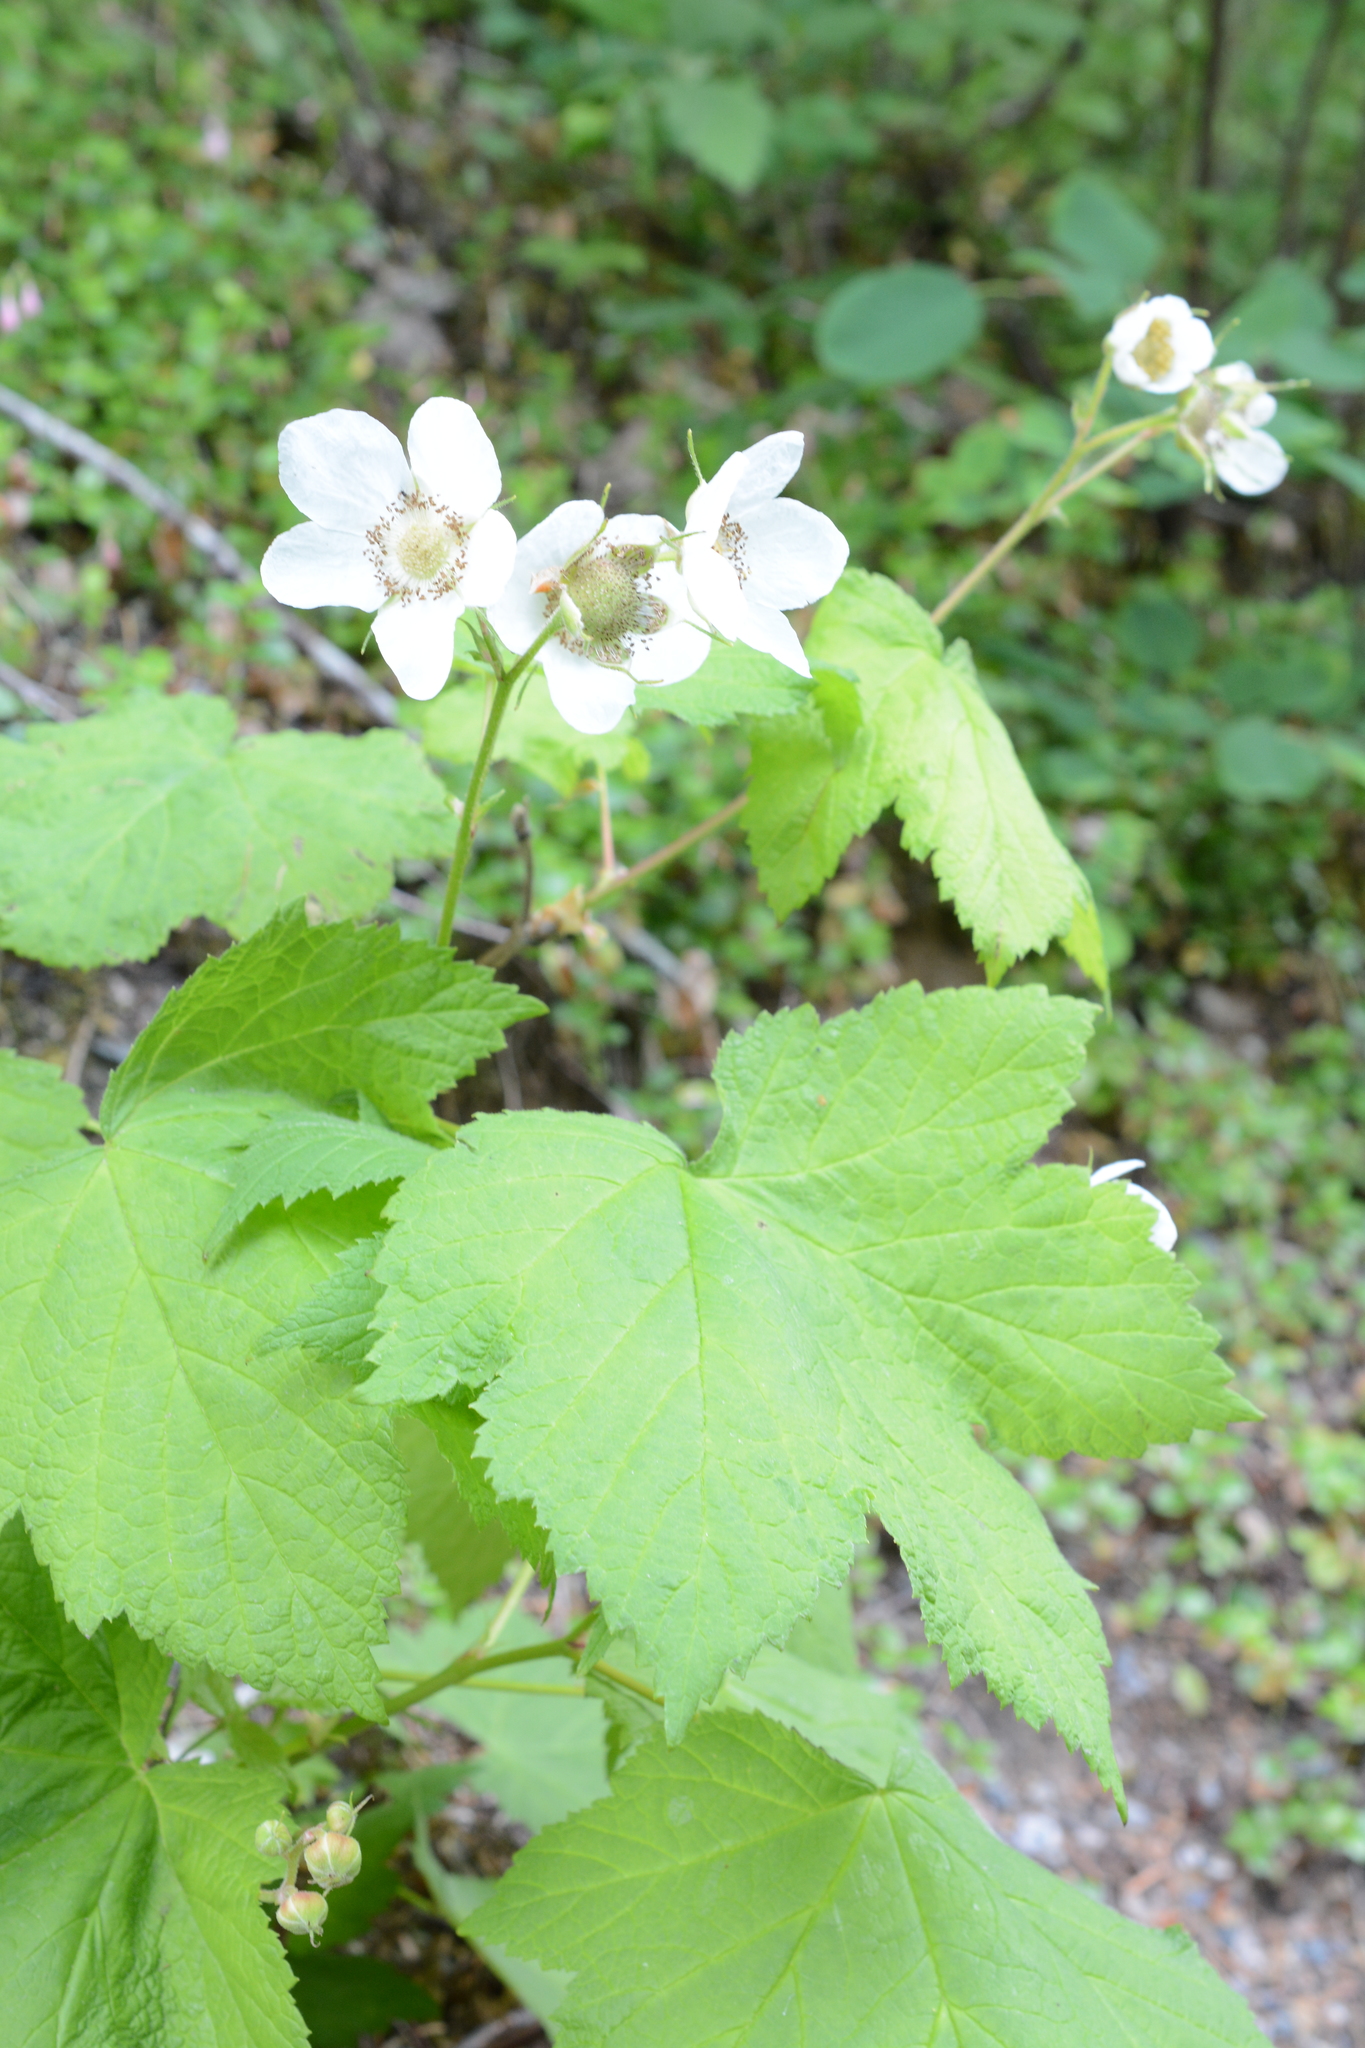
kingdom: Plantae
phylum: Tracheophyta
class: Magnoliopsida
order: Rosales
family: Rosaceae
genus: Rubus
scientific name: Rubus parviflorus
